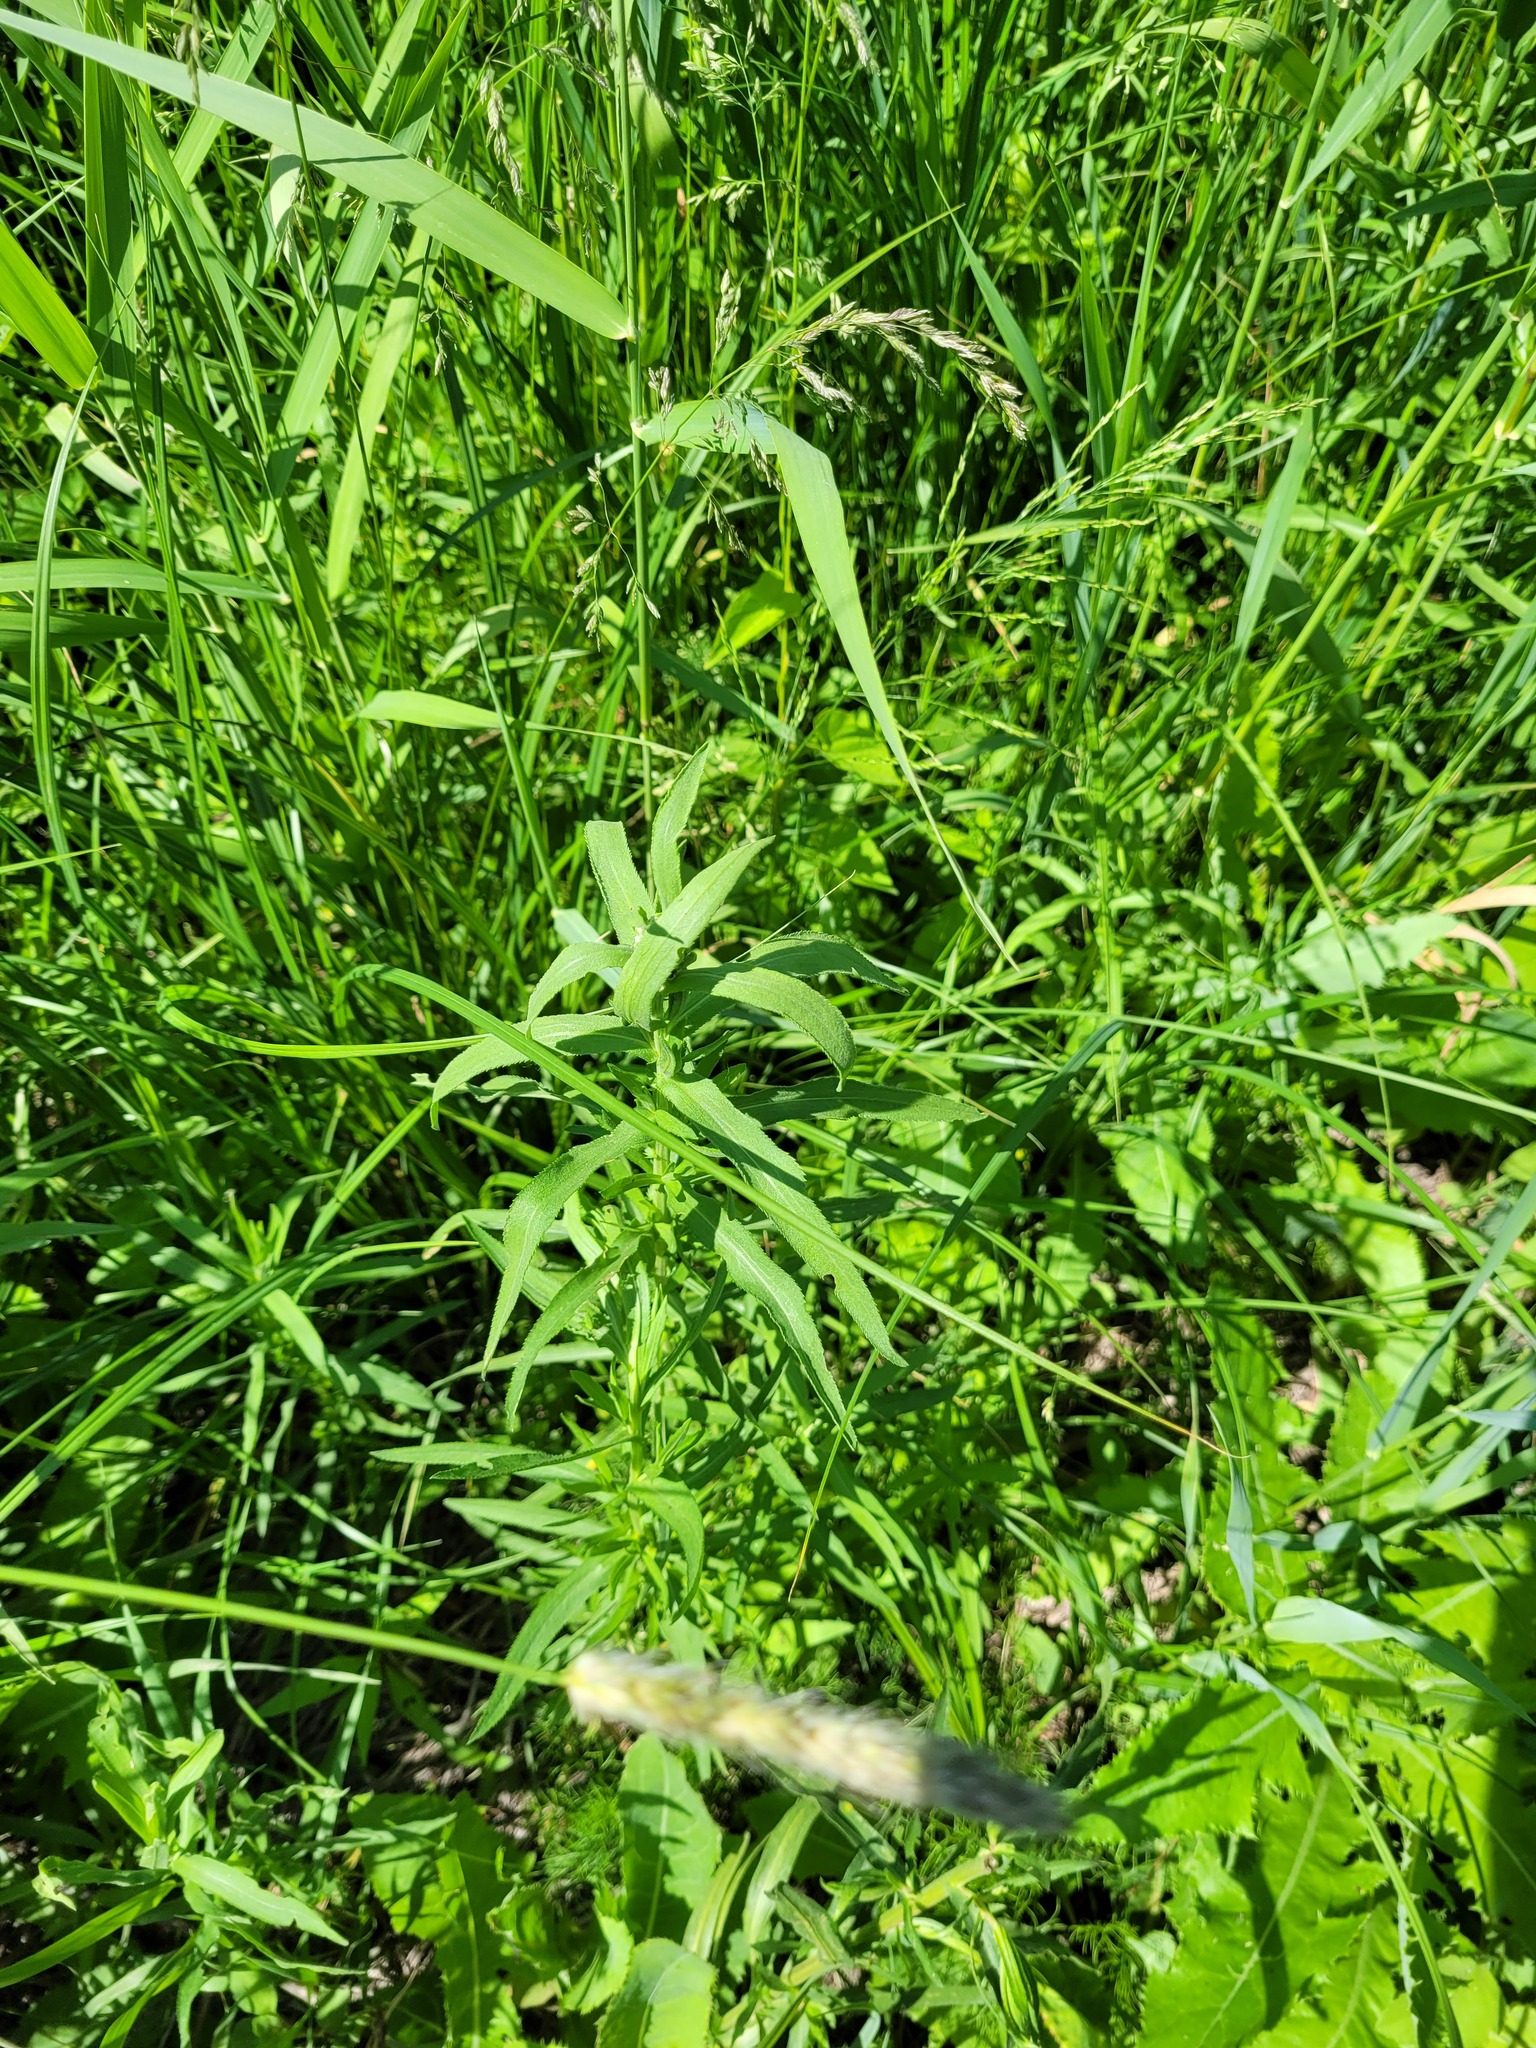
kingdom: Plantae
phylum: Tracheophyta
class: Magnoliopsida
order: Asterales
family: Asteraceae
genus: Achillea
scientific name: Achillea salicifolia
